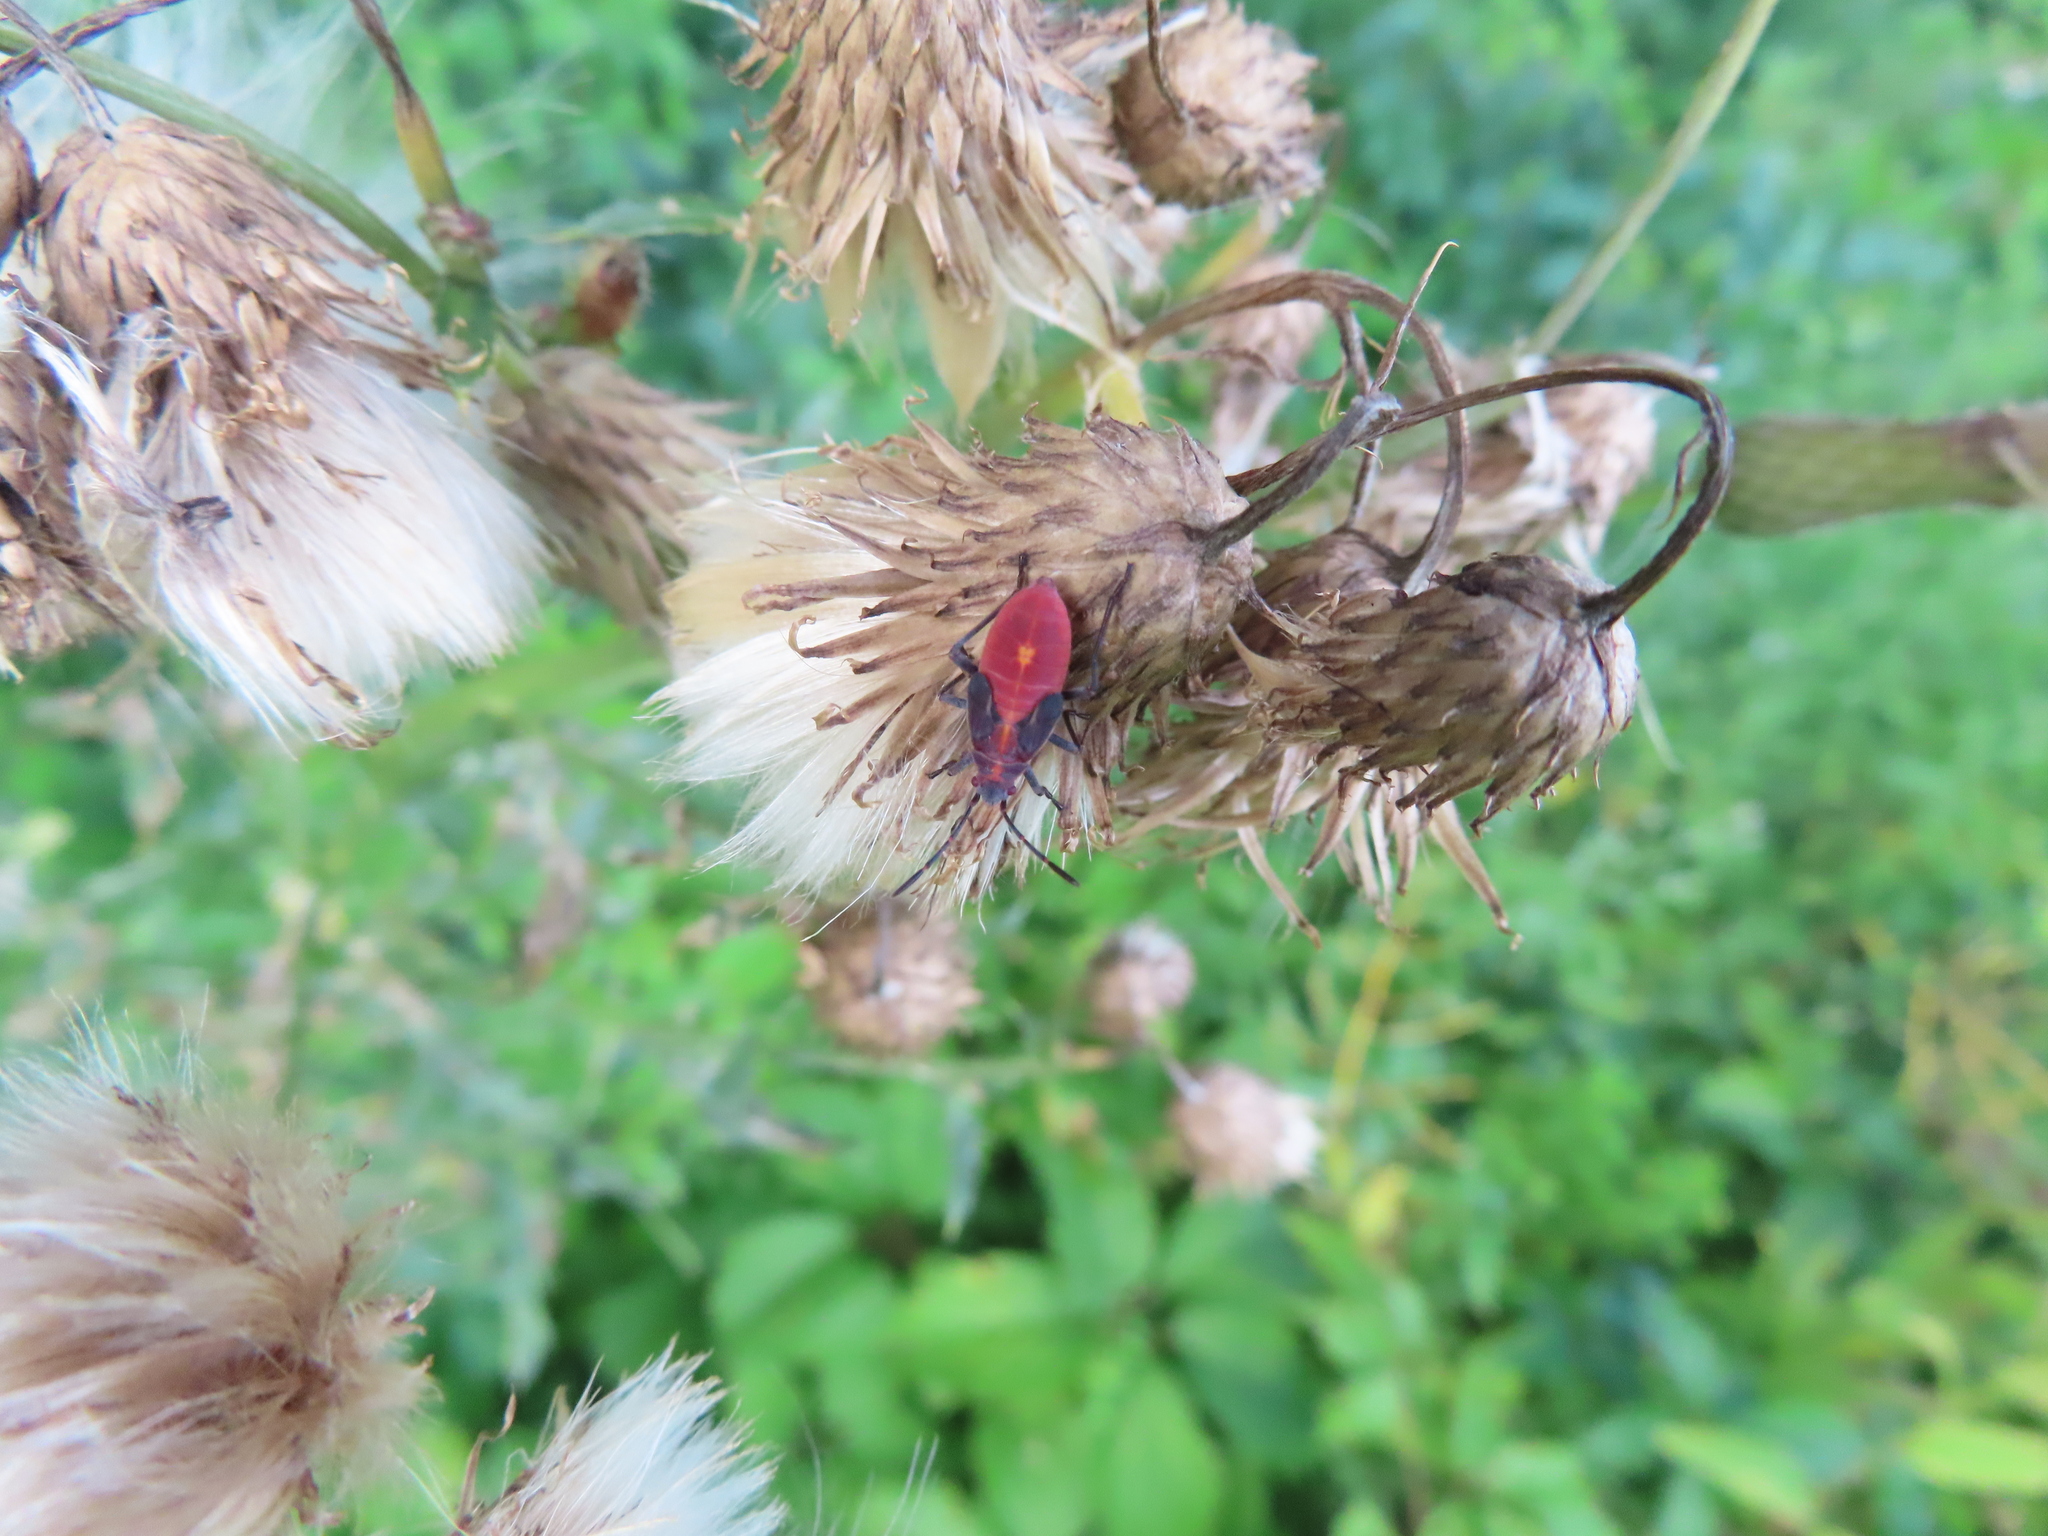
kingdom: Animalia
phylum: Arthropoda
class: Insecta
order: Hemiptera
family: Rhopalidae
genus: Boisea
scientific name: Boisea trivittata
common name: Boxelder bug
